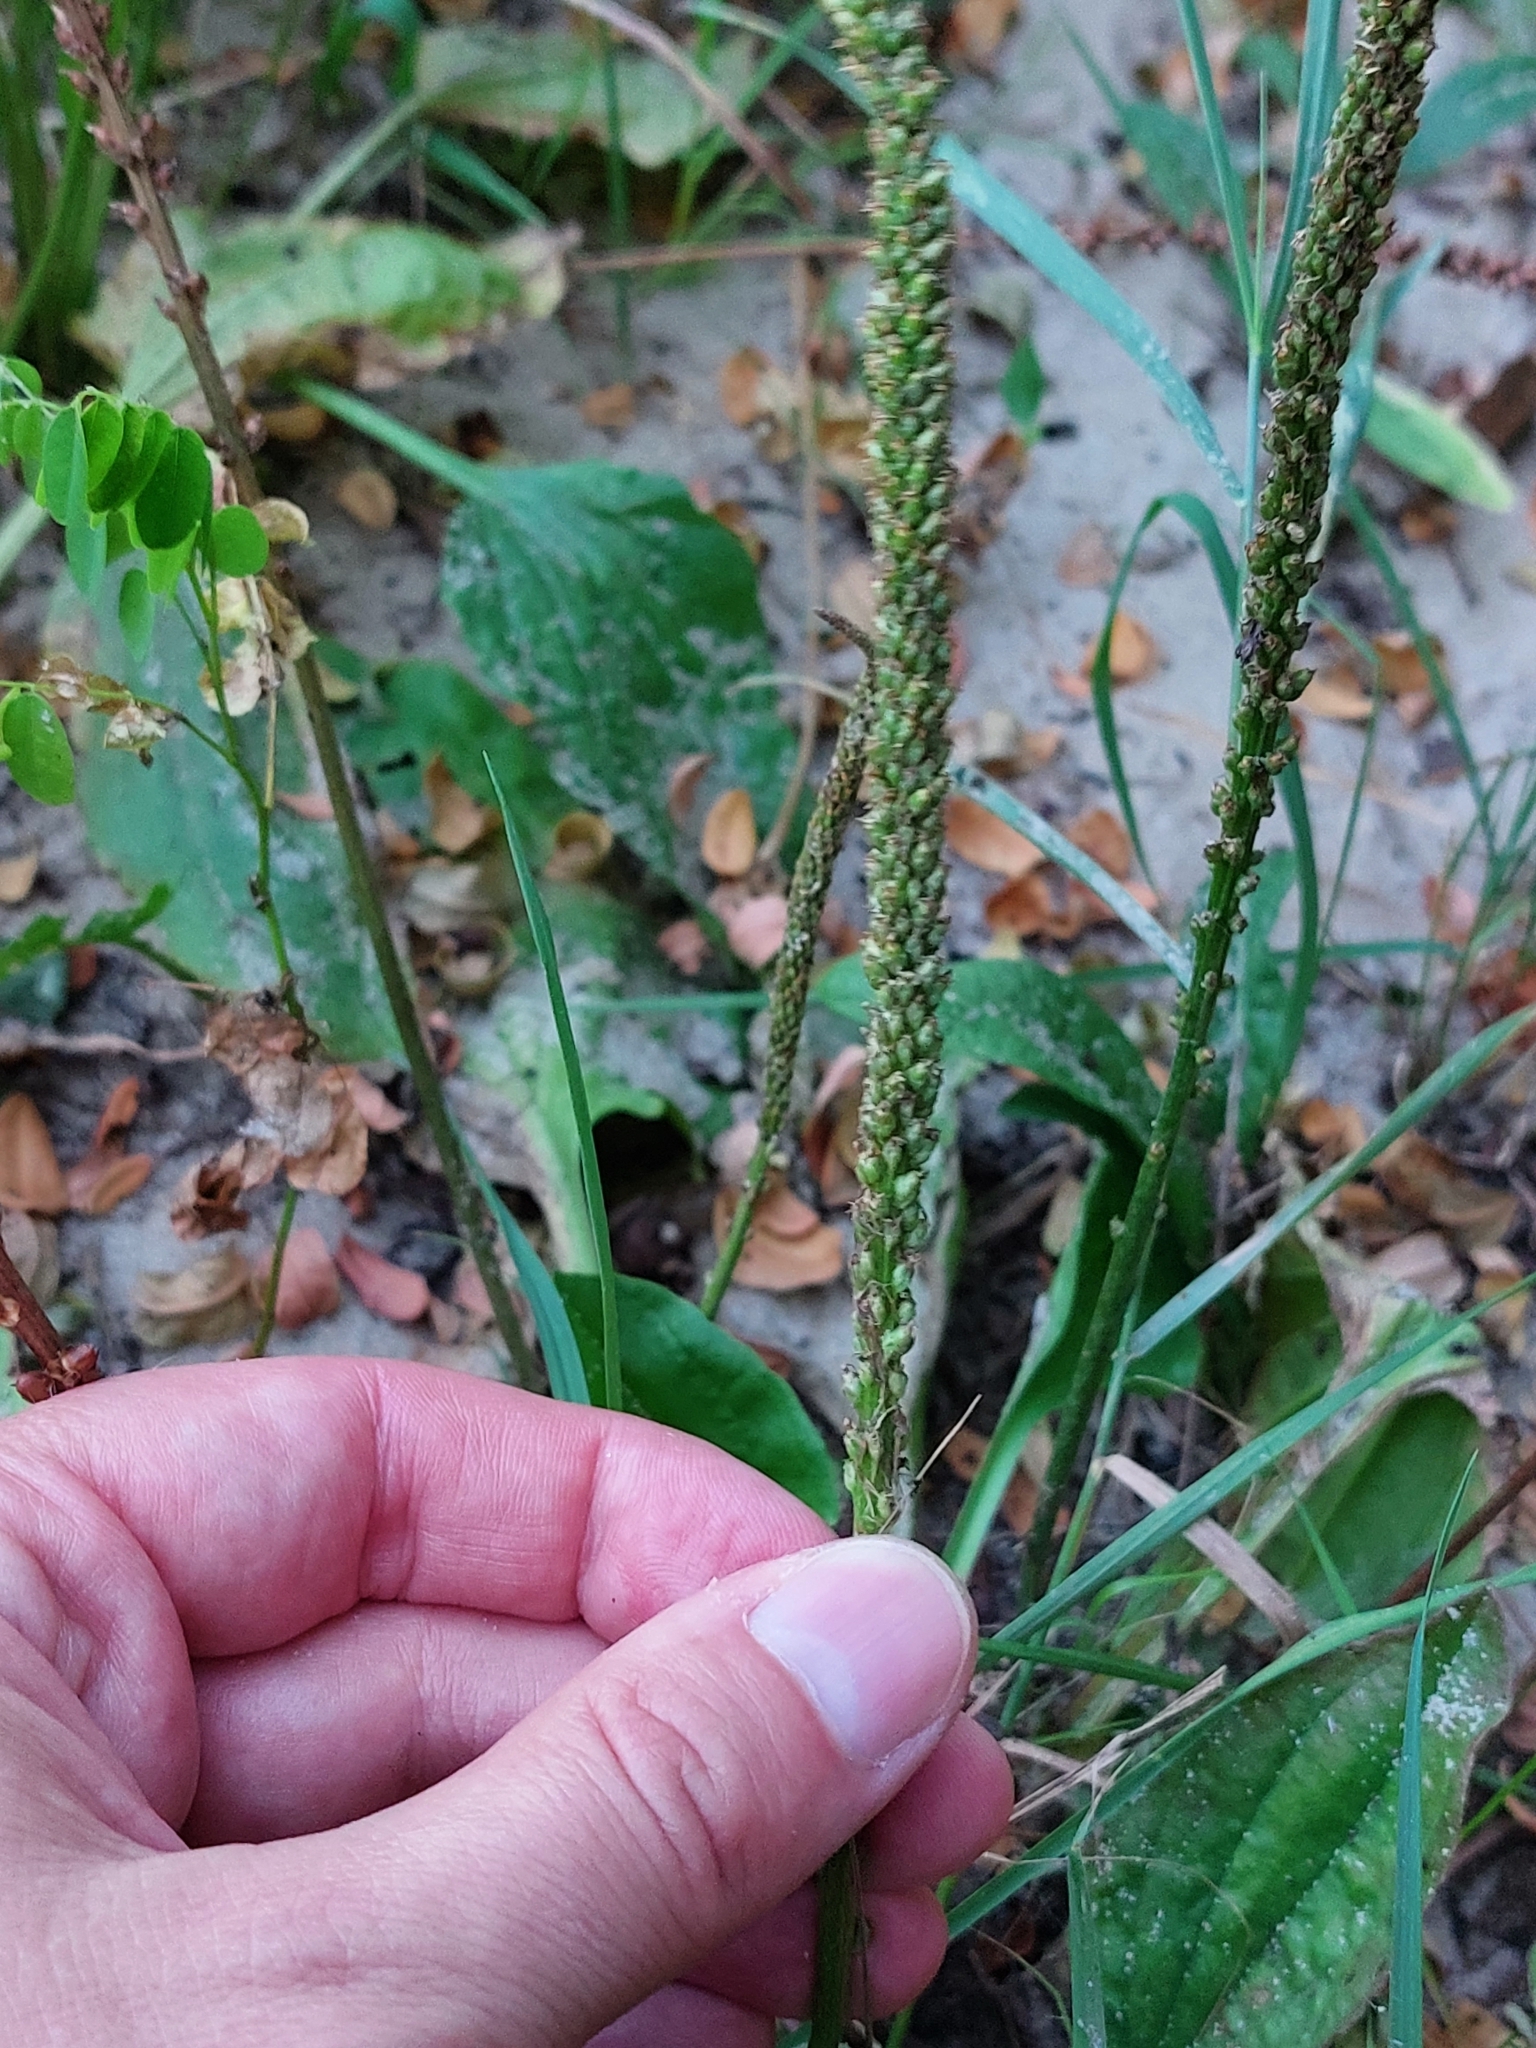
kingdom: Plantae
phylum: Tracheophyta
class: Magnoliopsida
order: Lamiales
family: Plantaginaceae
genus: Plantago
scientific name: Plantago major
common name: Common plantain
